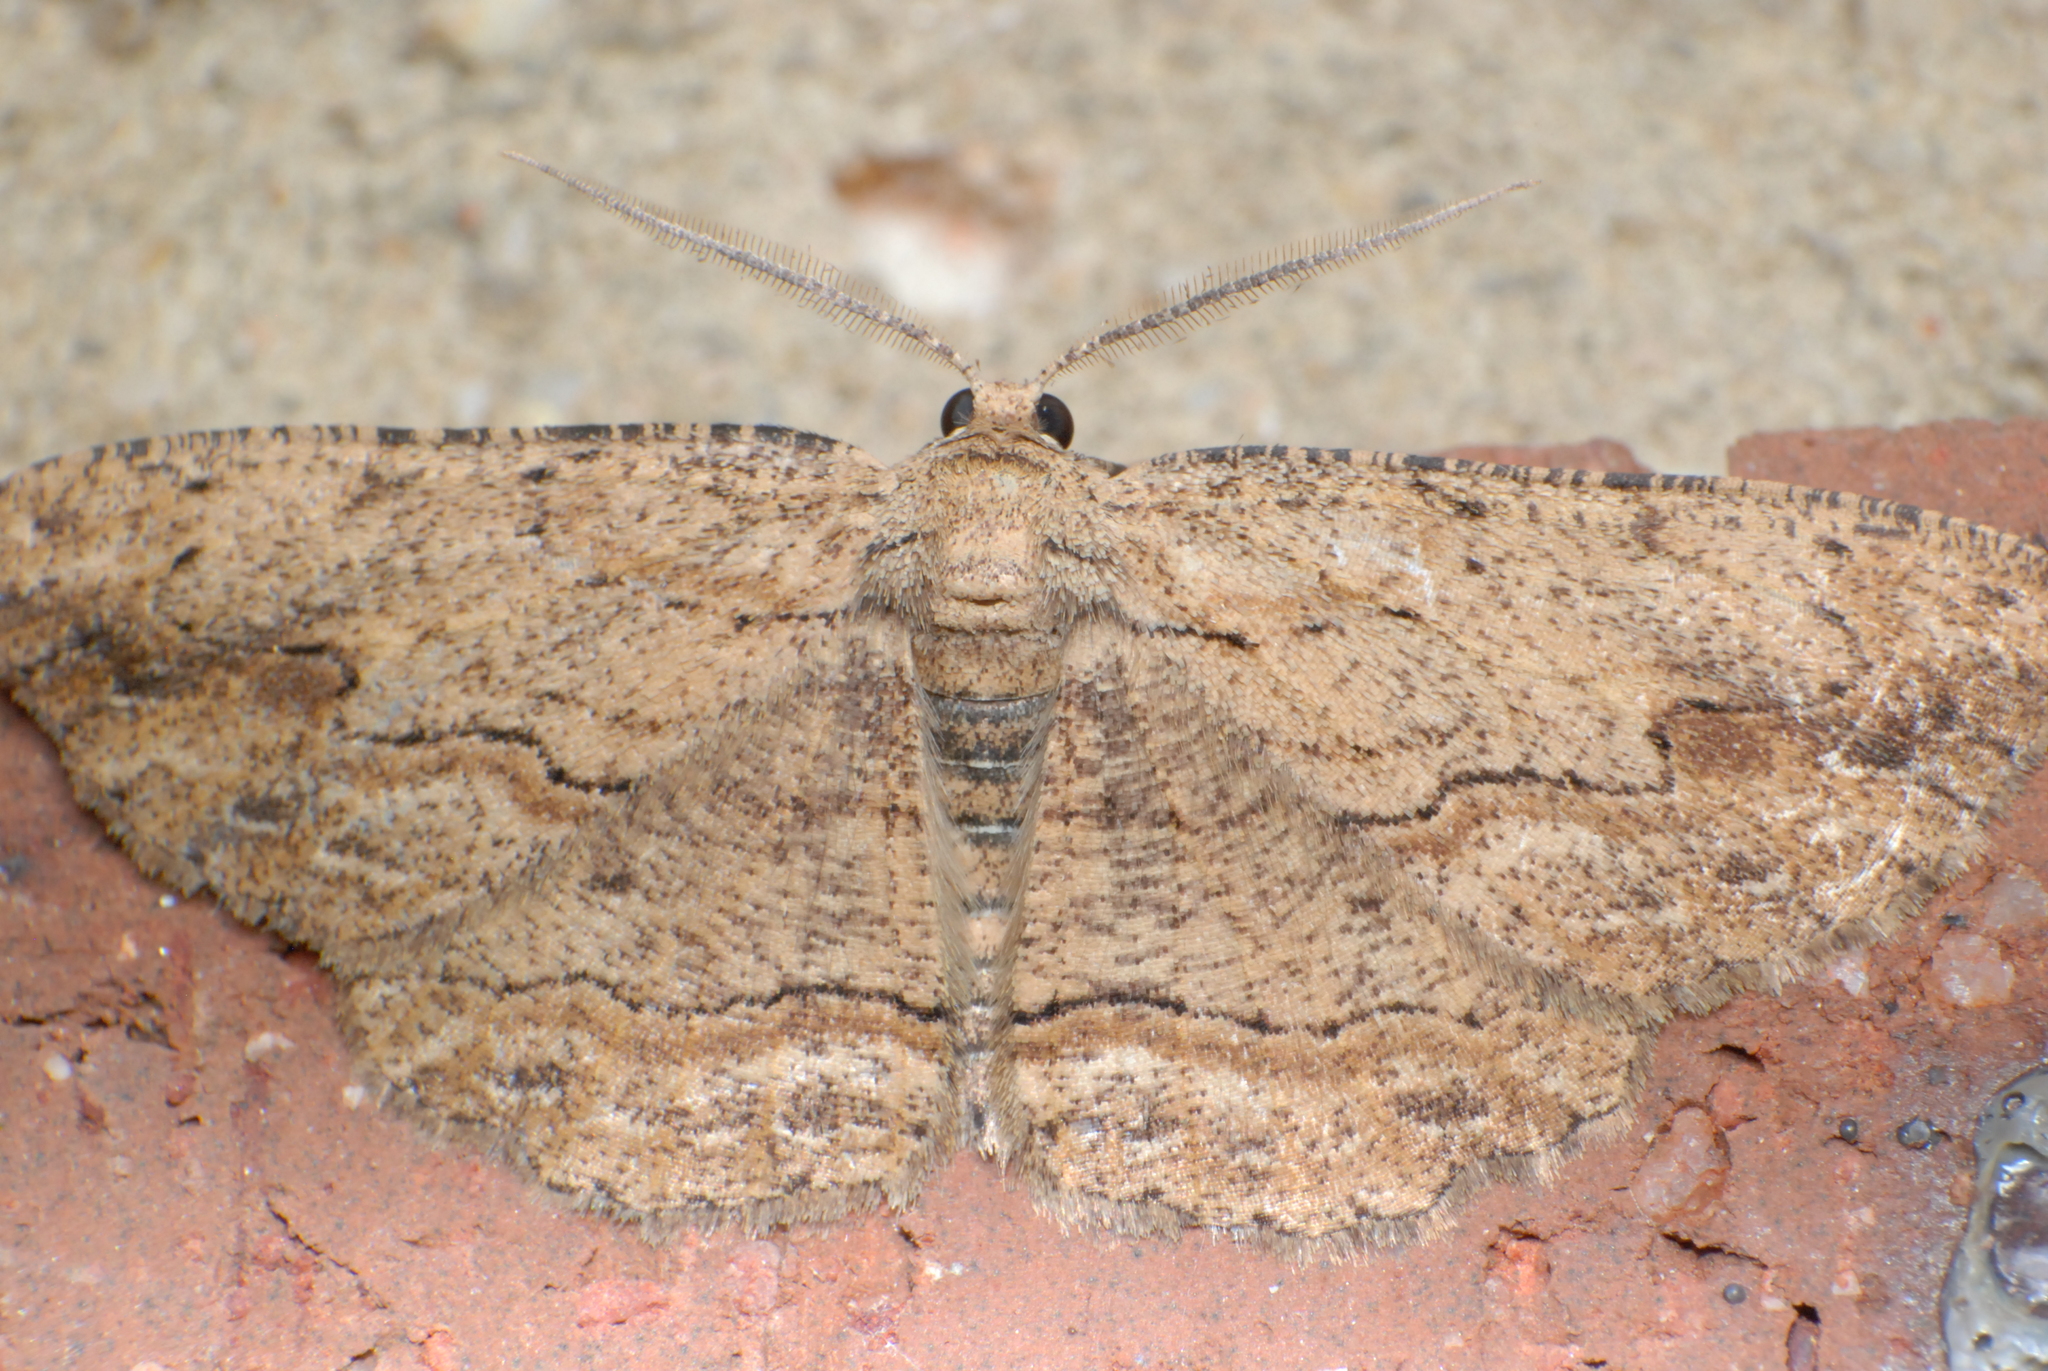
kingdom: Animalia
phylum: Arthropoda
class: Insecta
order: Lepidoptera
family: Geometridae
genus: Ectropis
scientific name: Ectropis excursaria
